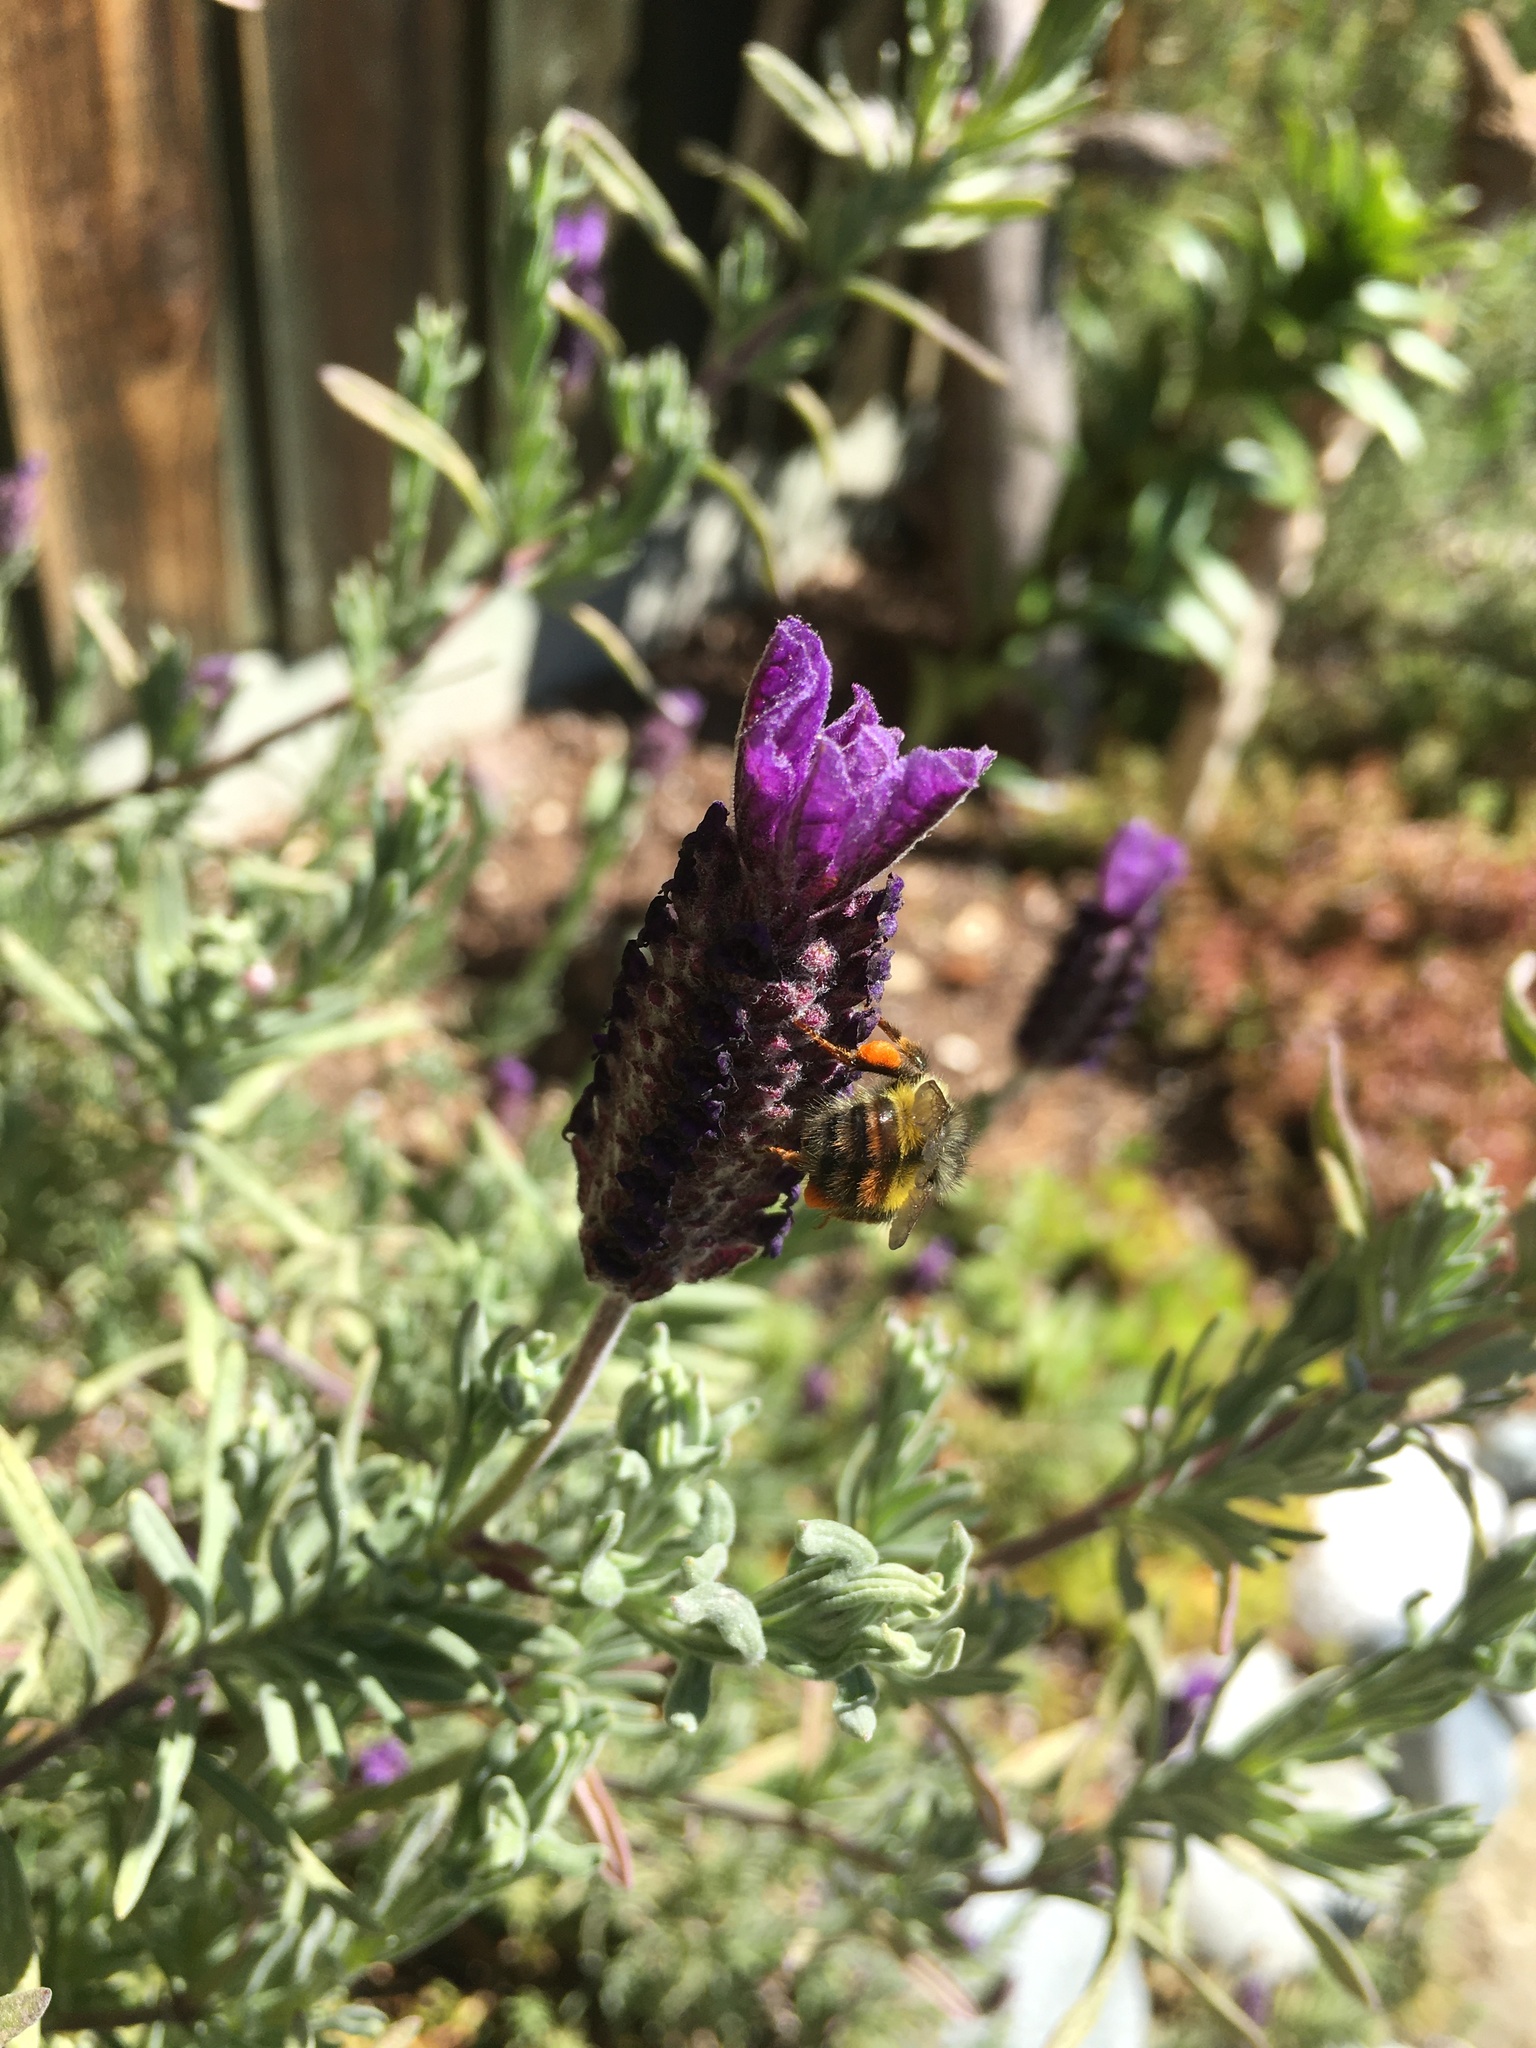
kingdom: Animalia
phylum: Arthropoda
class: Insecta
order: Hymenoptera
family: Apidae
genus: Bombus
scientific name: Bombus flavifrons
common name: Yellow head bumble bee
